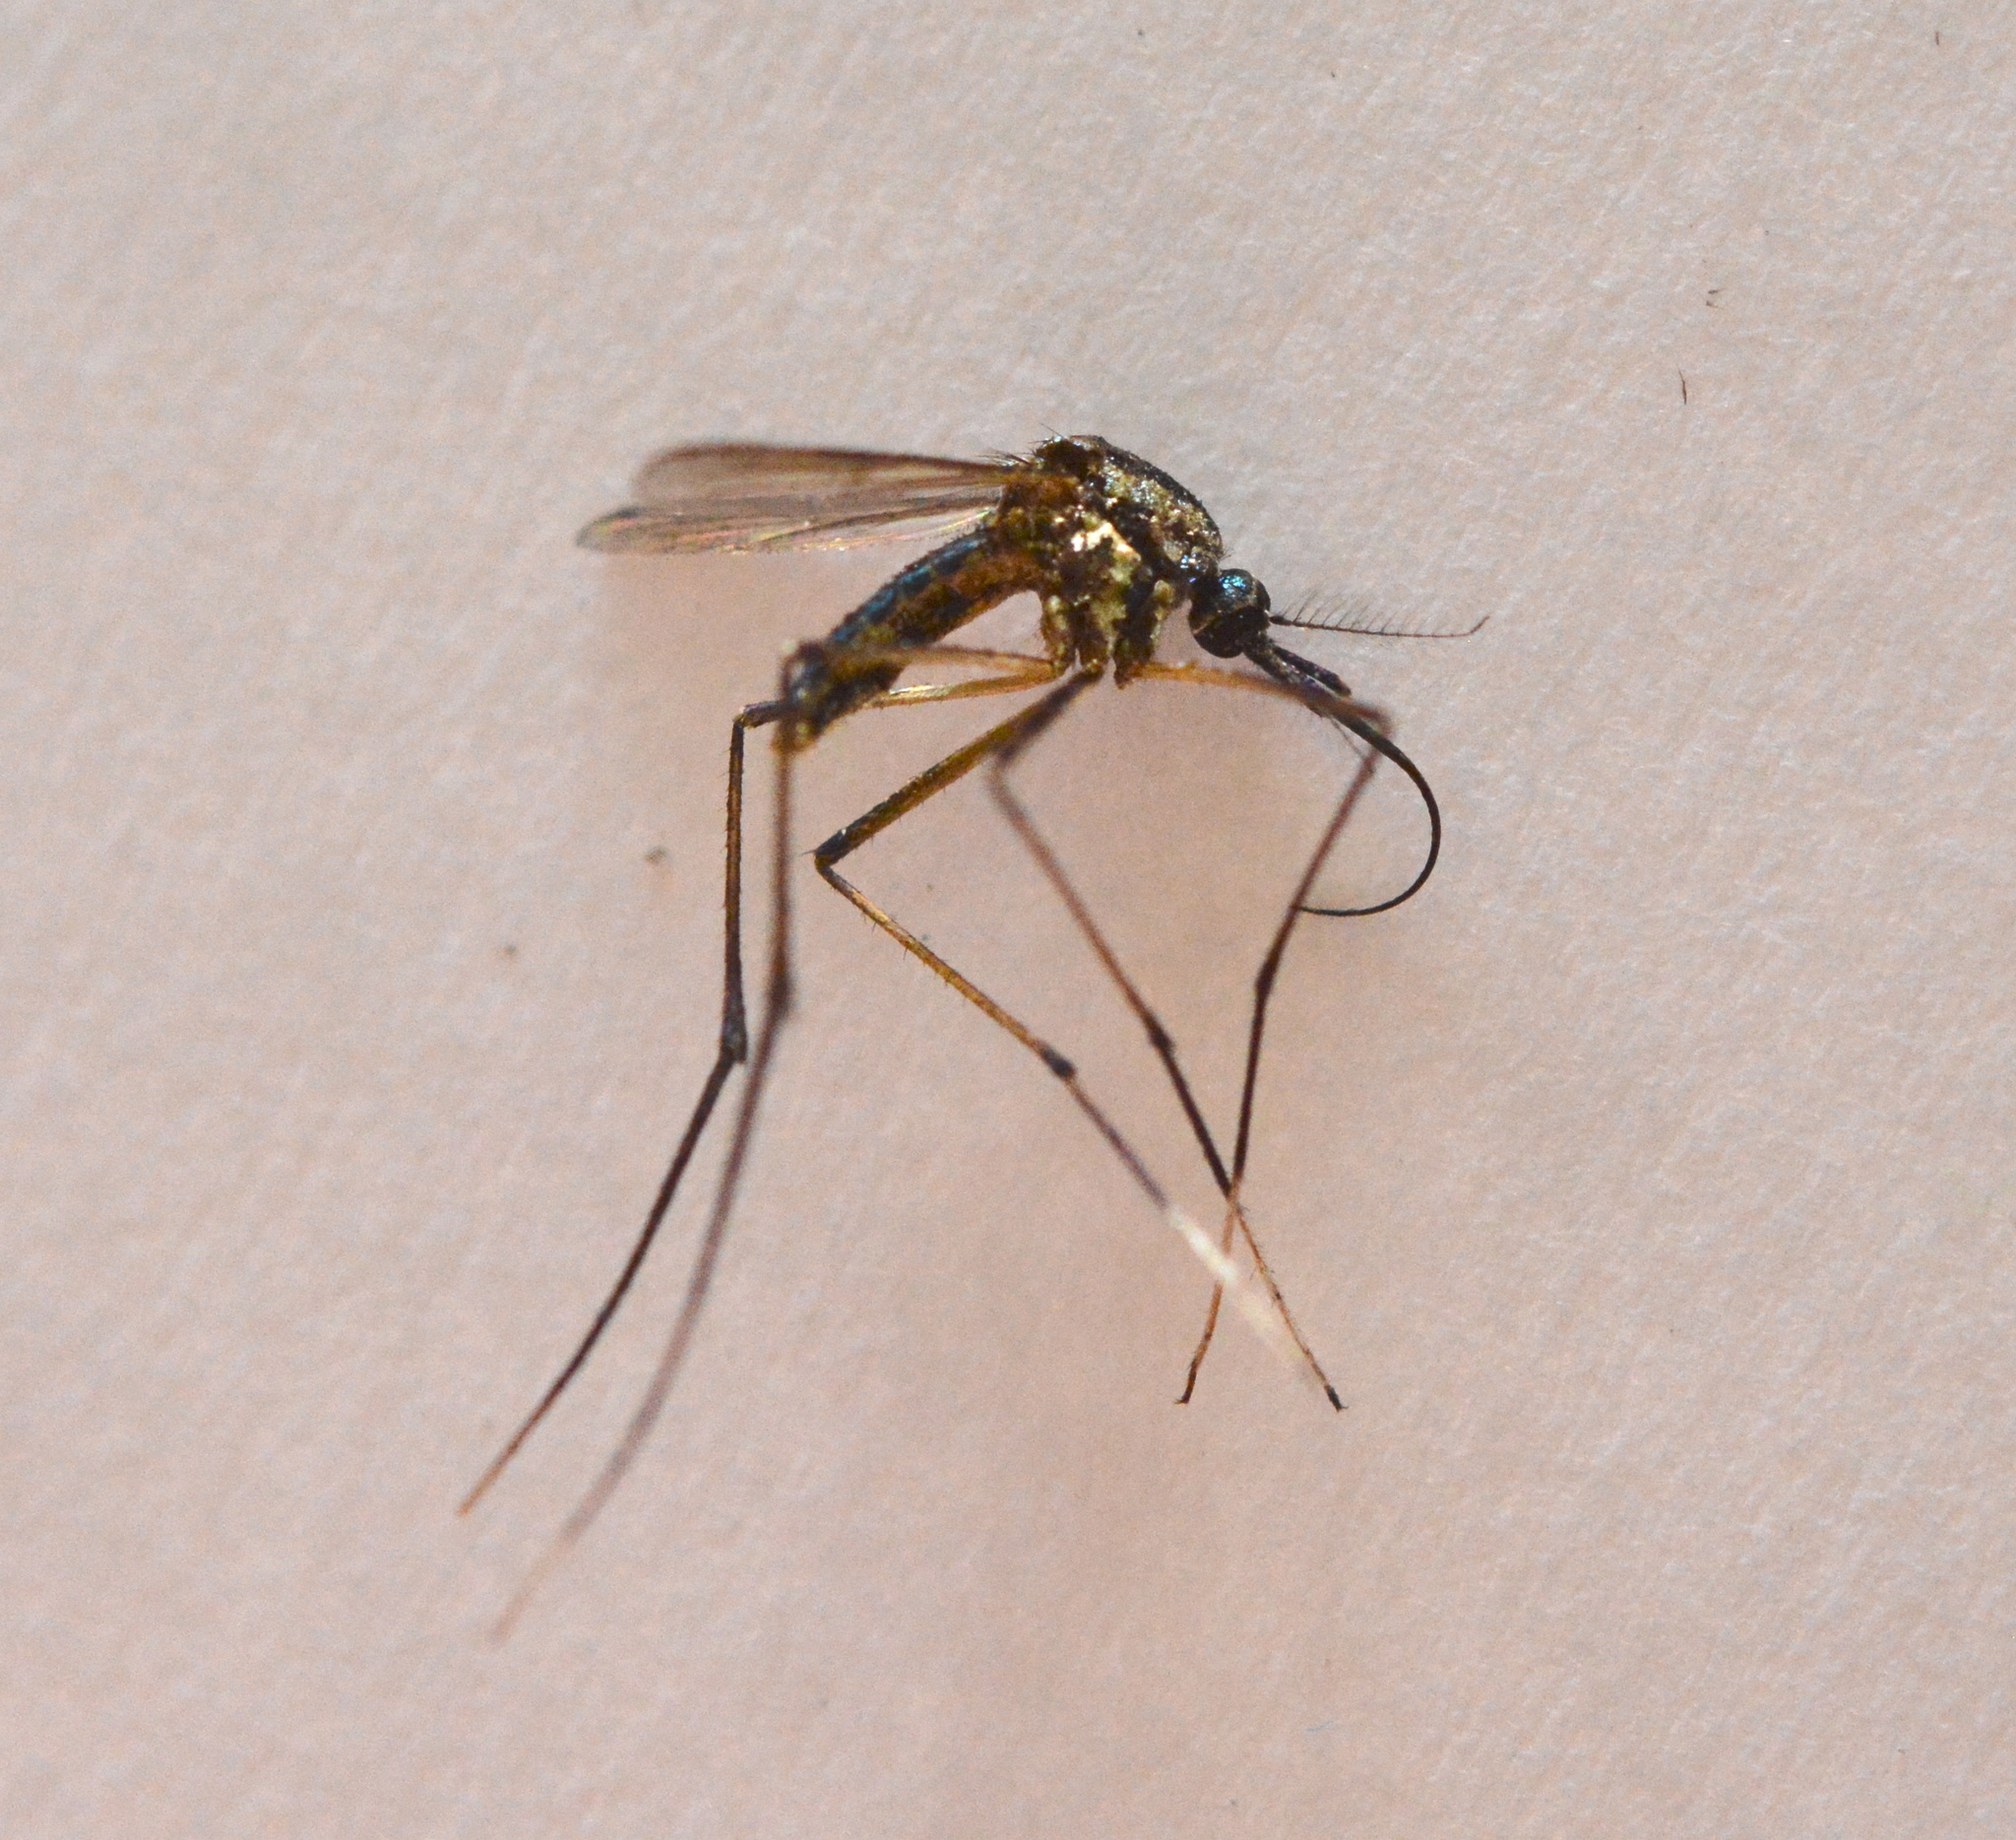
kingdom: Animalia
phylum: Arthropoda
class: Insecta
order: Diptera
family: Culicidae
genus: Toxorhynchites
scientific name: Toxorhynchites rutilus
